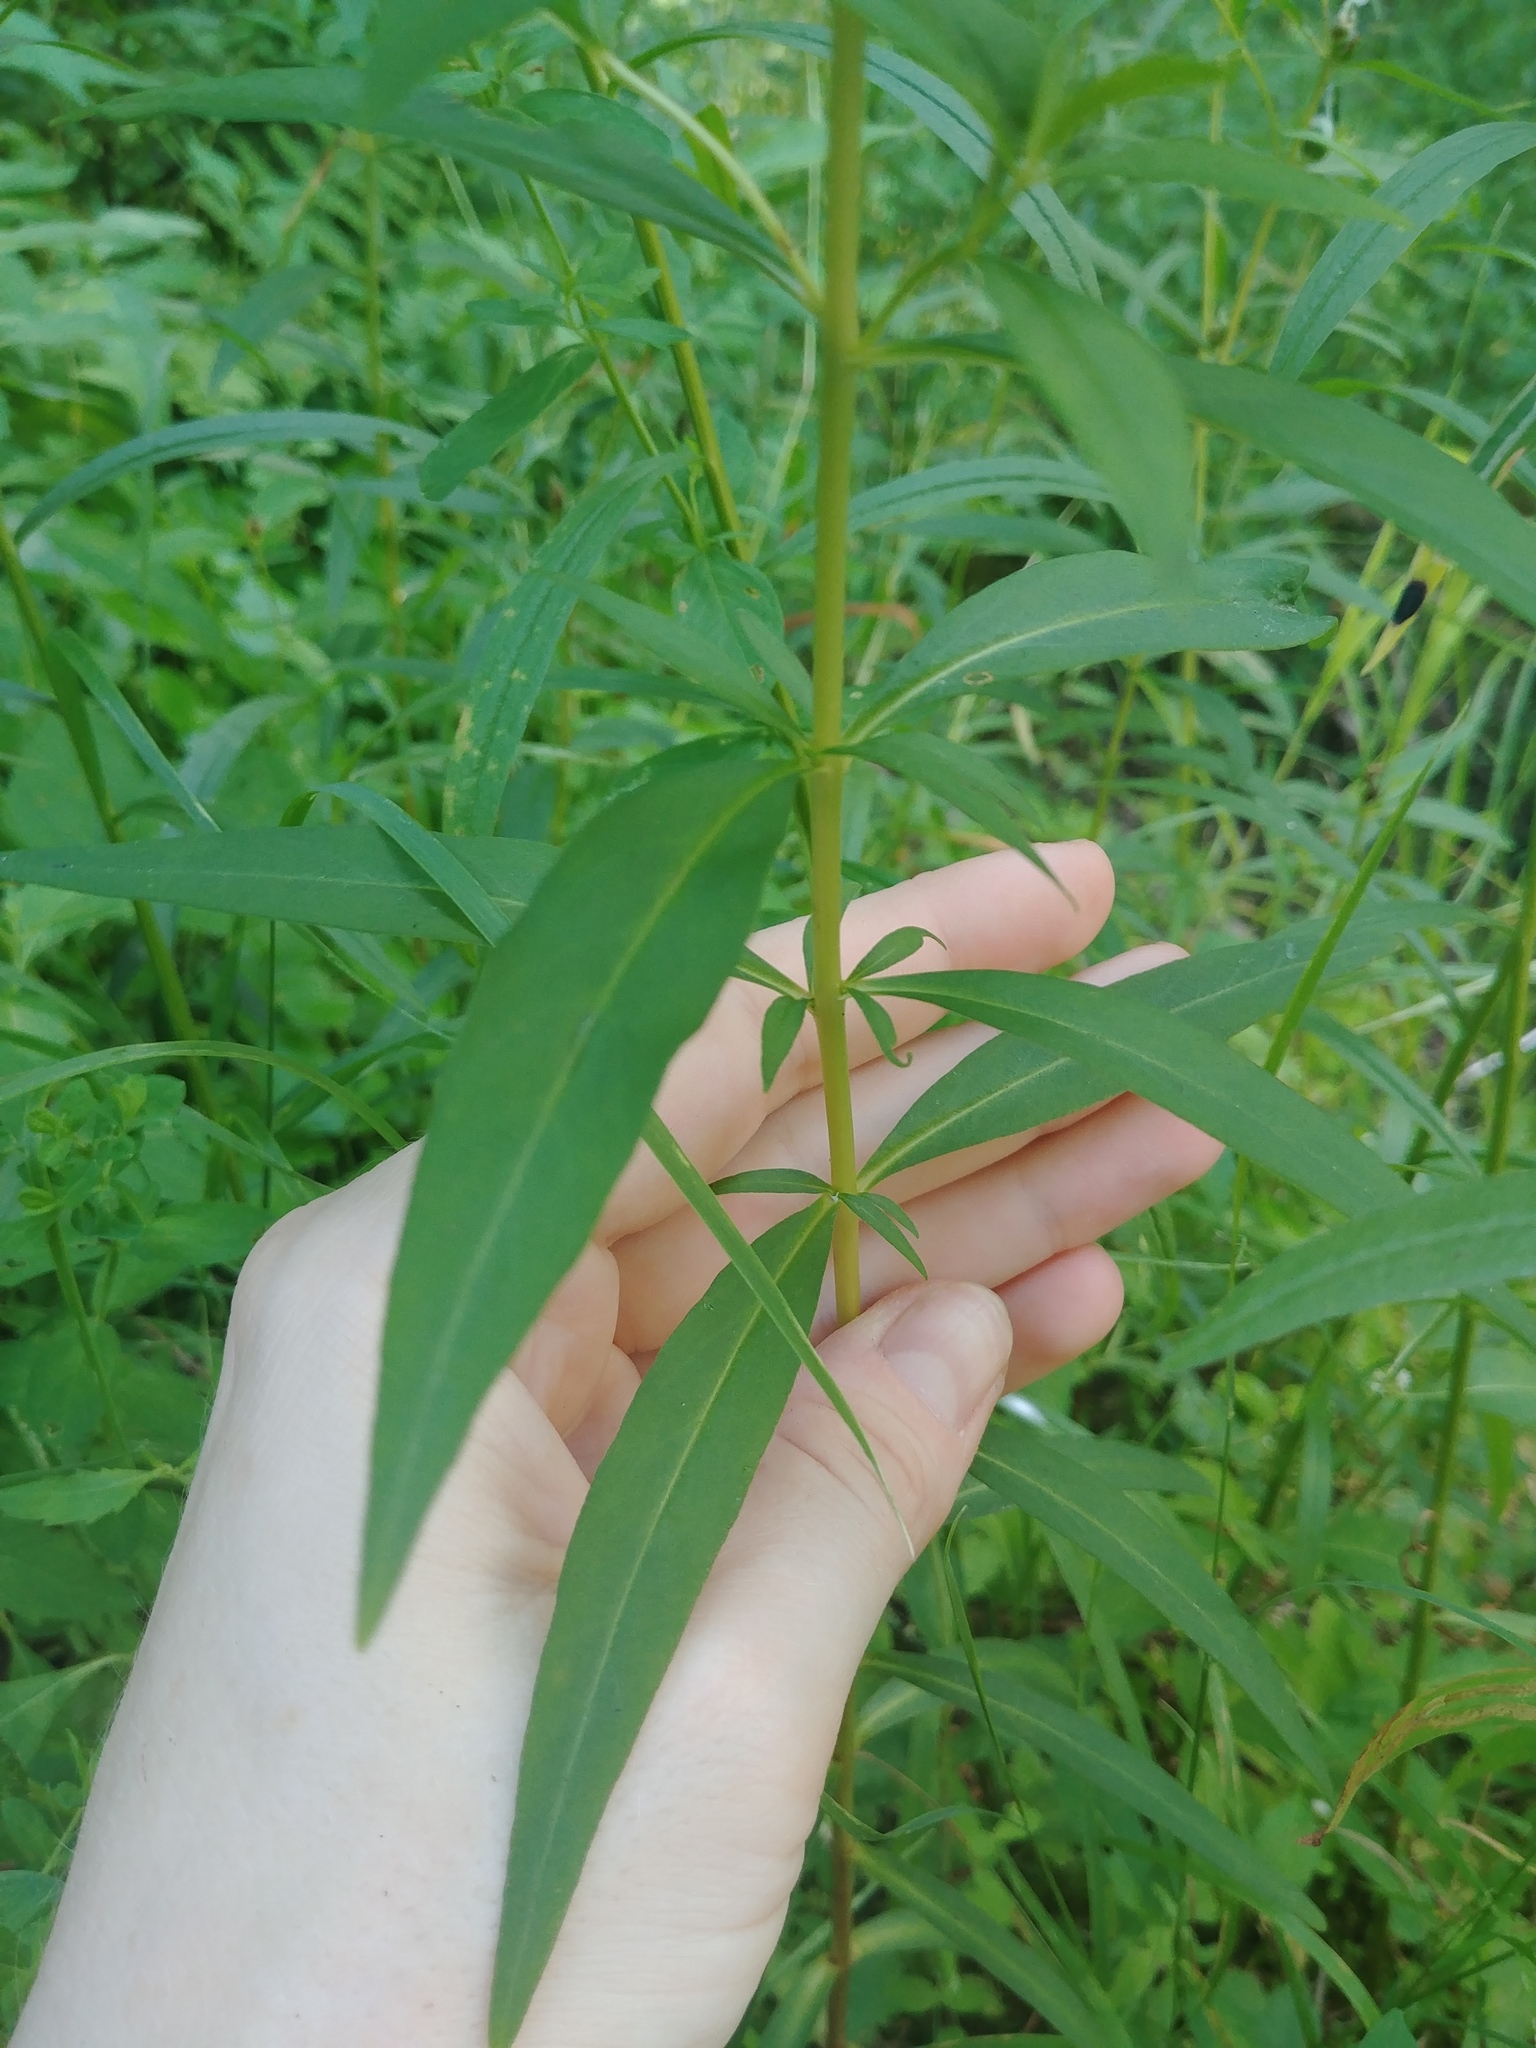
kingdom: Plantae
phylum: Tracheophyta
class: Magnoliopsida
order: Ericales
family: Primulaceae
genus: Lysimachia
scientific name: Lysimachia terrestris
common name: Lake loosestrife
